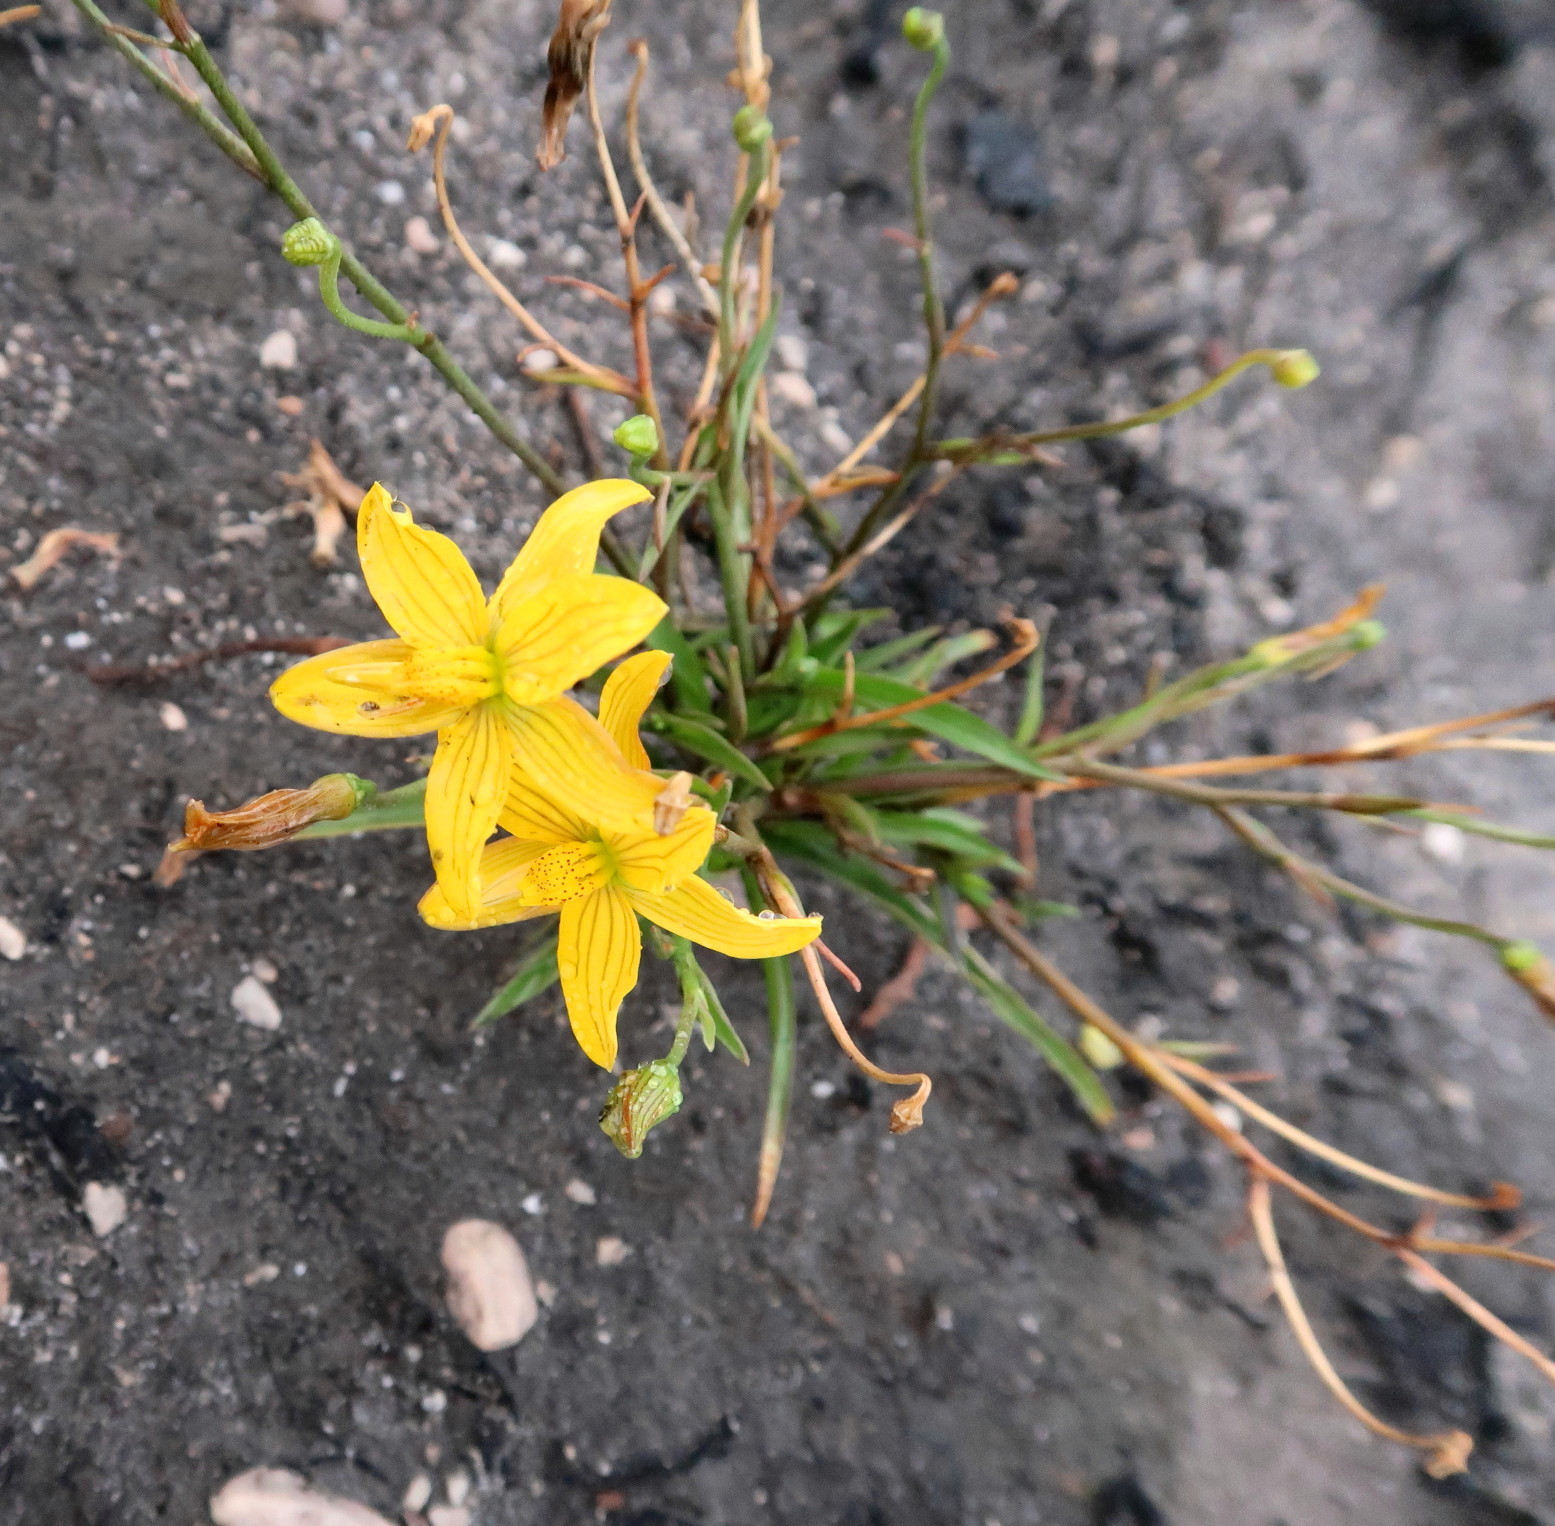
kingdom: Plantae
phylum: Tracheophyta
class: Liliopsida
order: Asparagales
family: Tecophilaeaceae
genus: Cyanella
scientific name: Cyanella lutea
